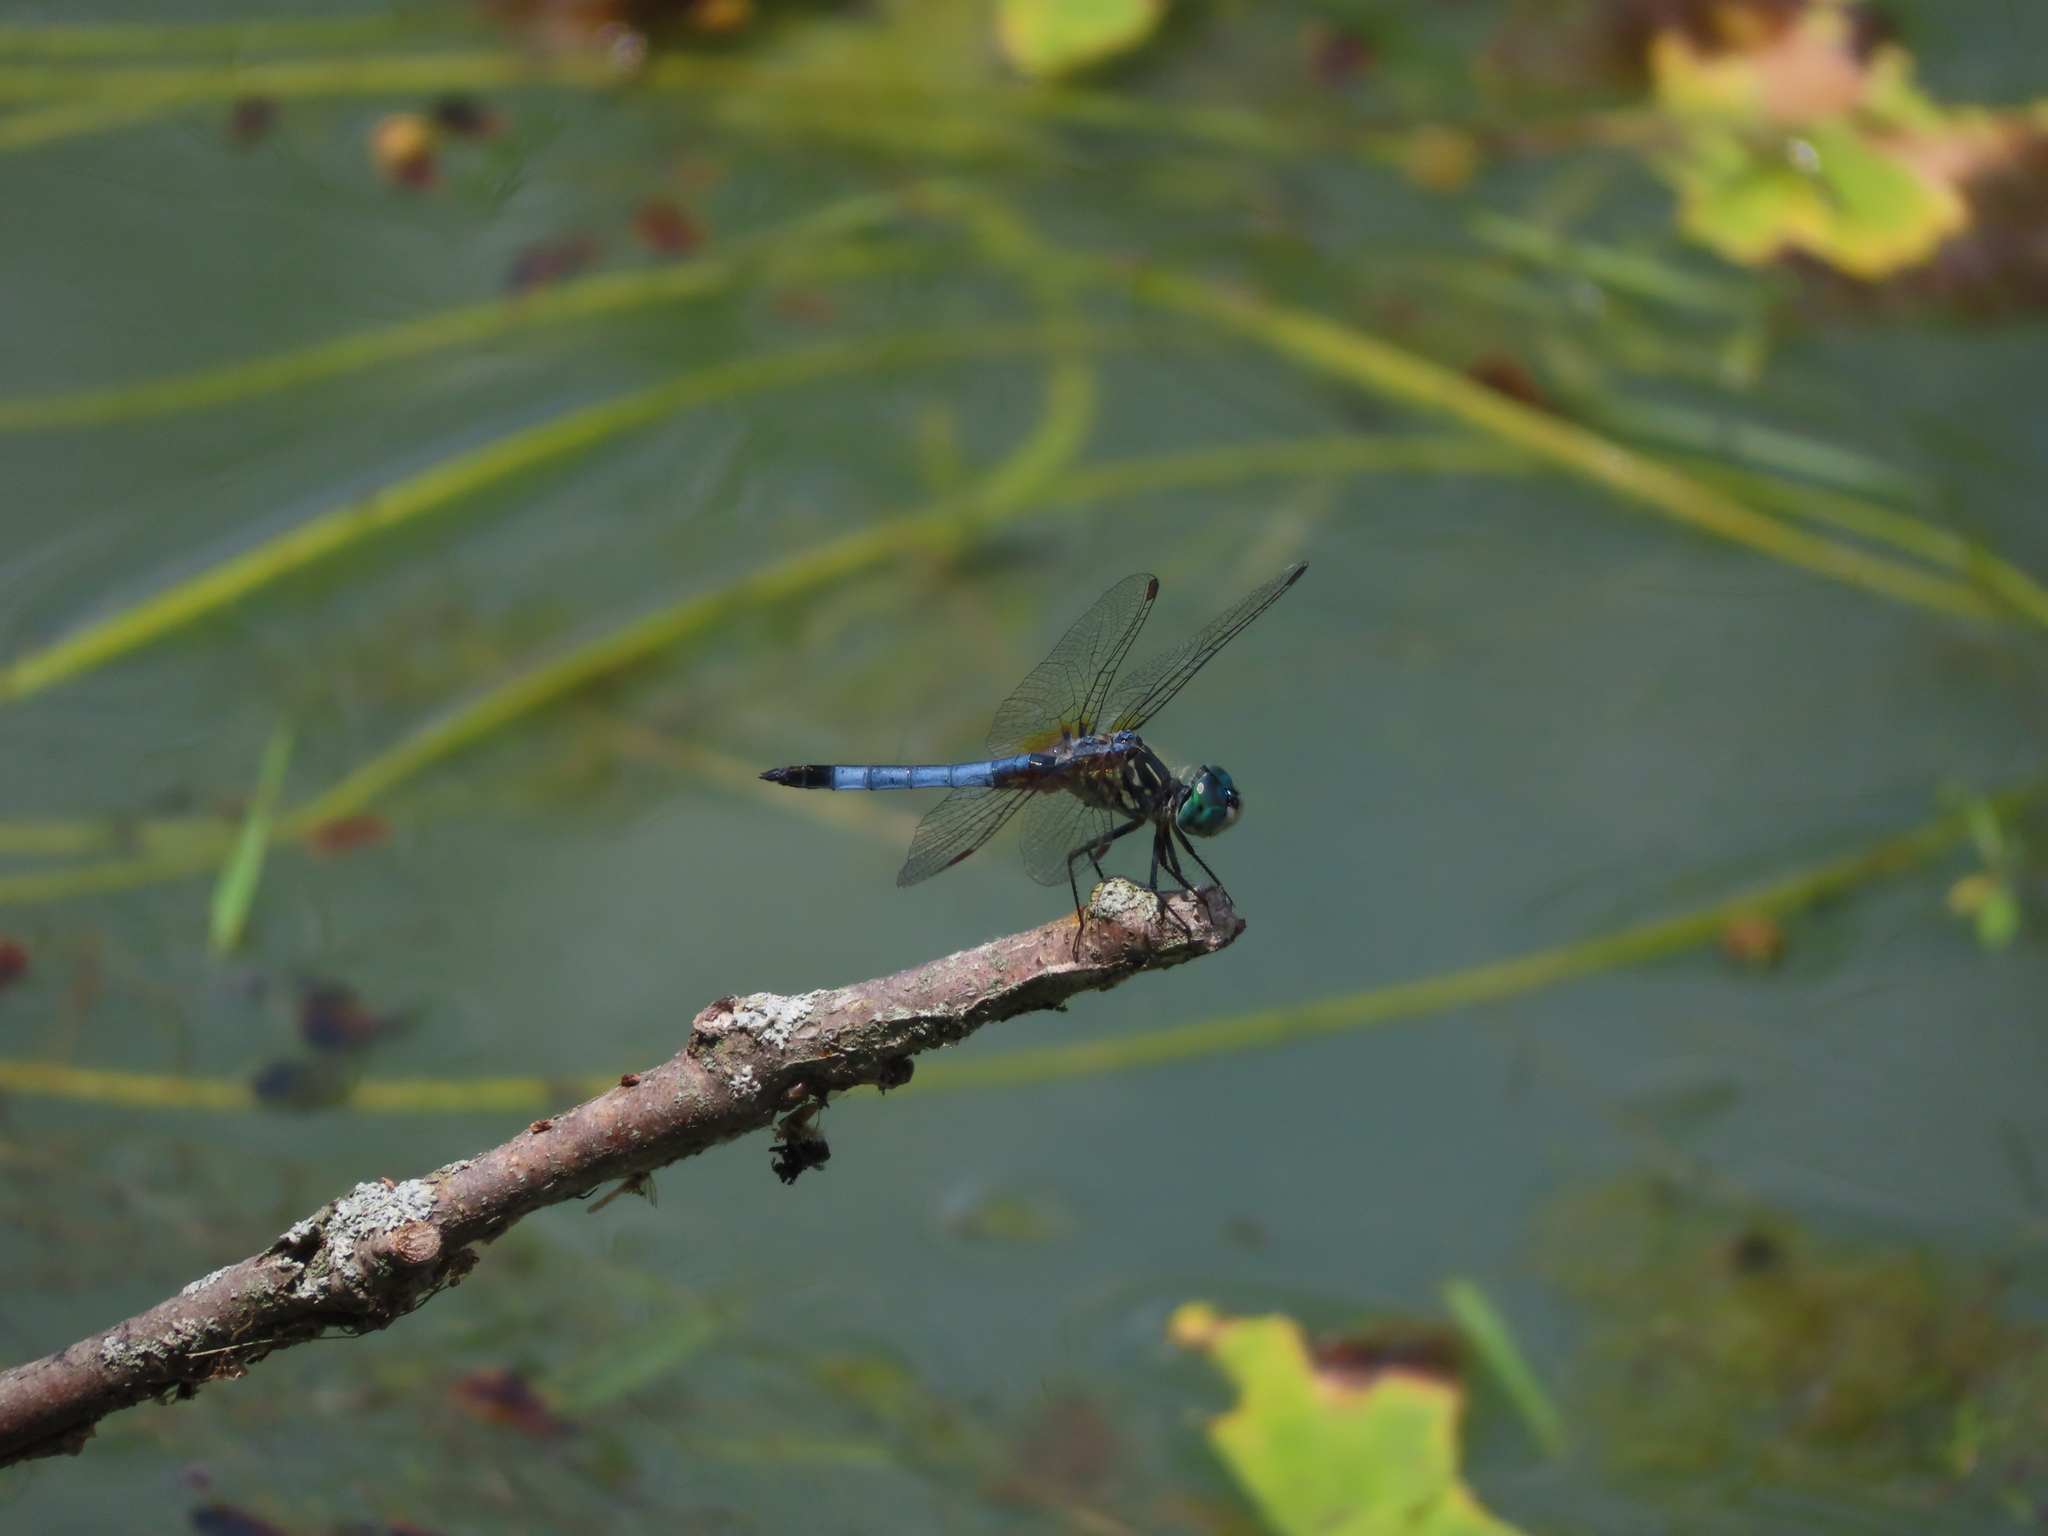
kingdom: Animalia
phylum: Arthropoda
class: Insecta
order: Odonata
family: Libellulidae
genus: Pachydiplax
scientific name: Pachydiplax longipennis
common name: Blue dasher
